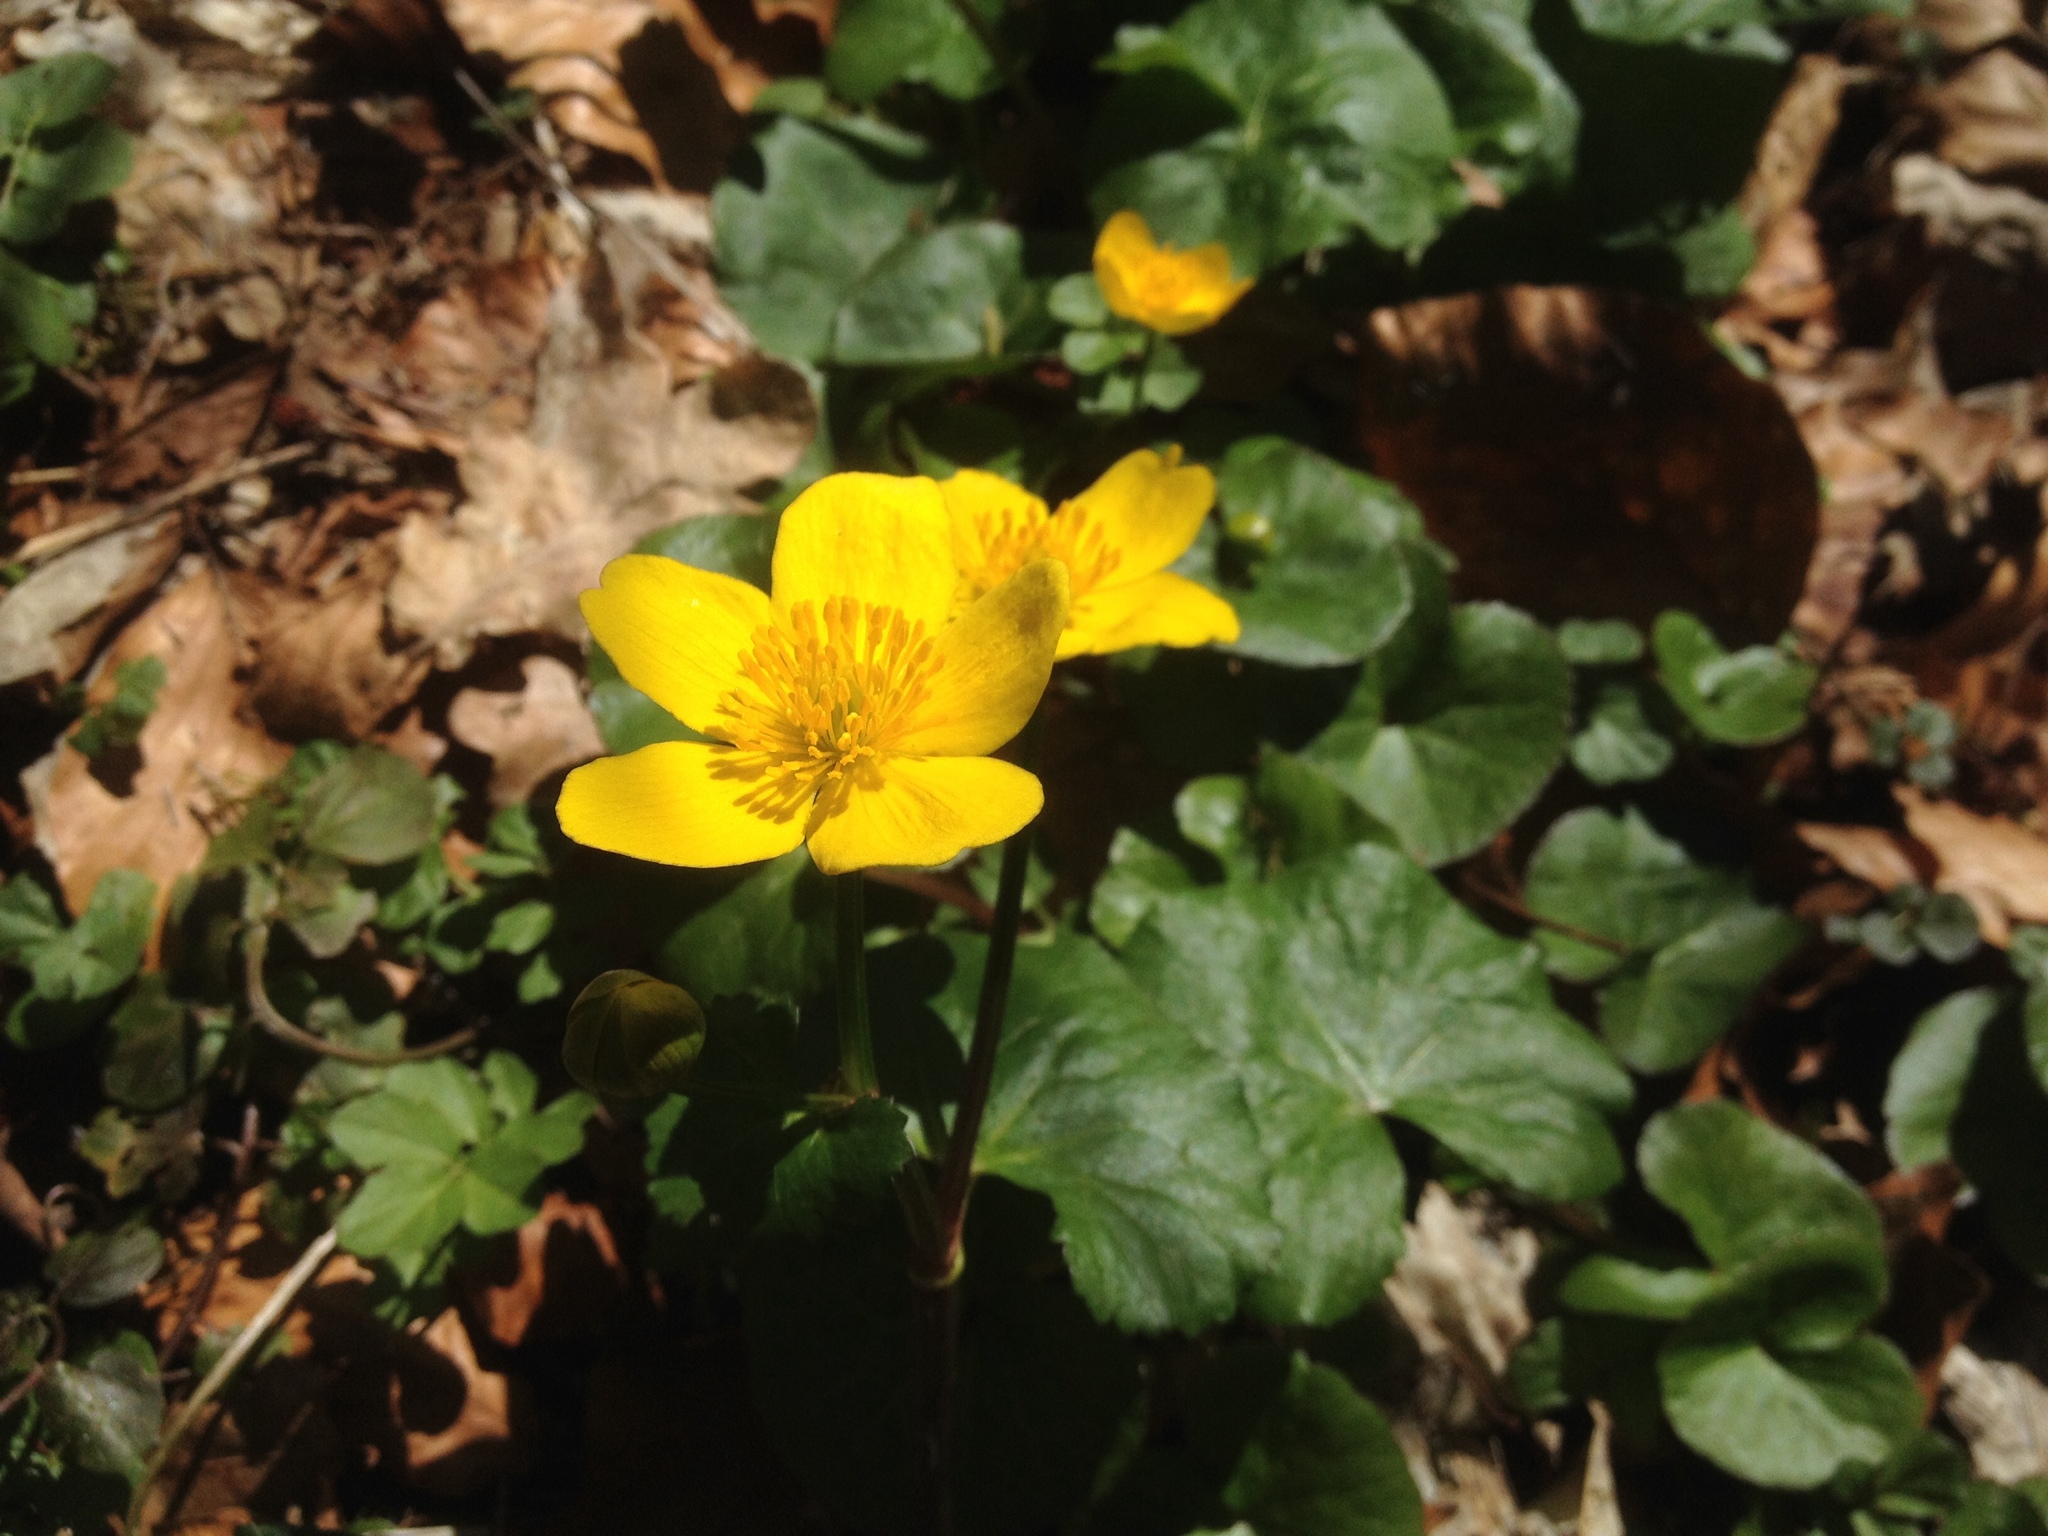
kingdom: Plantae
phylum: Tracheophyta
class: Magnoliopsida
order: Ranunculales
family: Ranunculaceae
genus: Caltha
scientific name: Caltha palustris
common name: Marsh marigold
